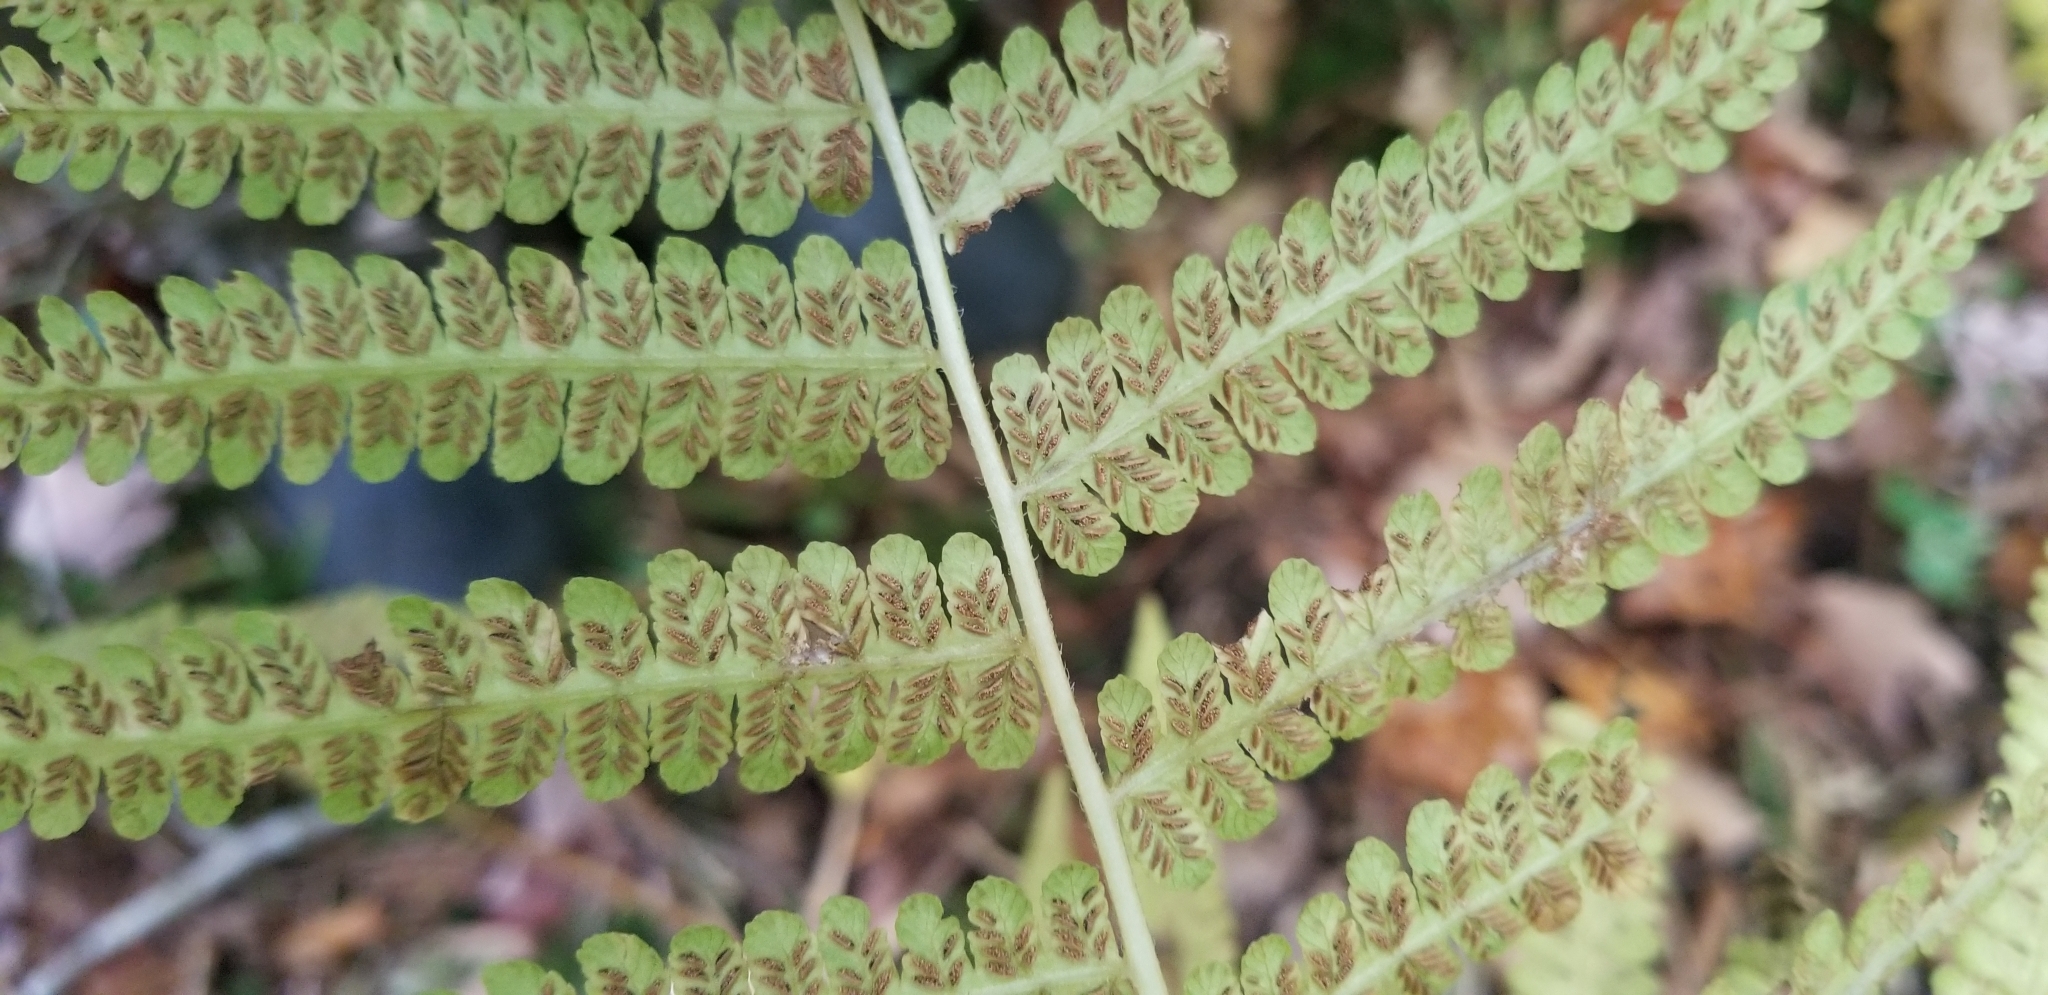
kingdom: Plantae
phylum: Tracheophyta
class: Polypodiopsida
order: Polypodiales
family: Athyriaceae
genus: Deparia
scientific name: Deparia acrostichoides
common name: Silver false spleenwort
